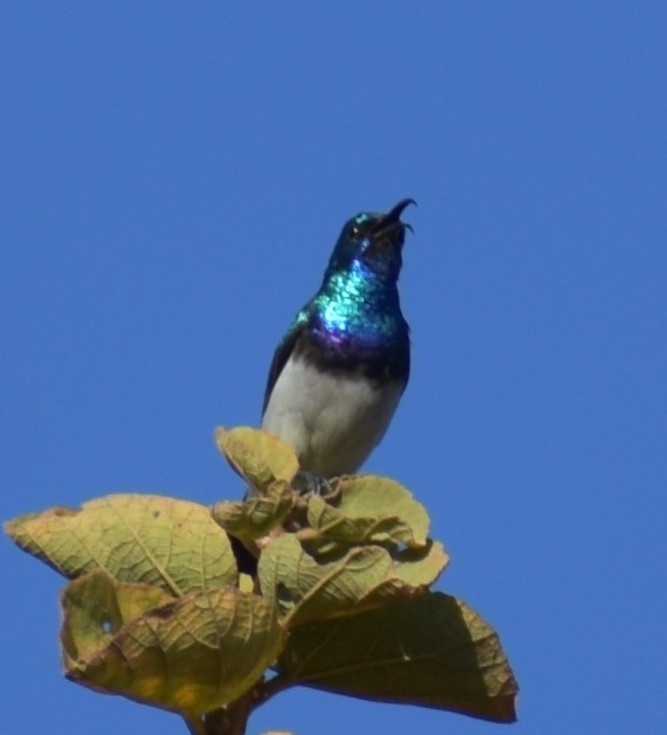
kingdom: Animalia
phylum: Chordata
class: Aves
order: Passeriformes
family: Nectariniidae
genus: Cinnyris
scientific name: Cinnyris talatala
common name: White-bellied sunbird
